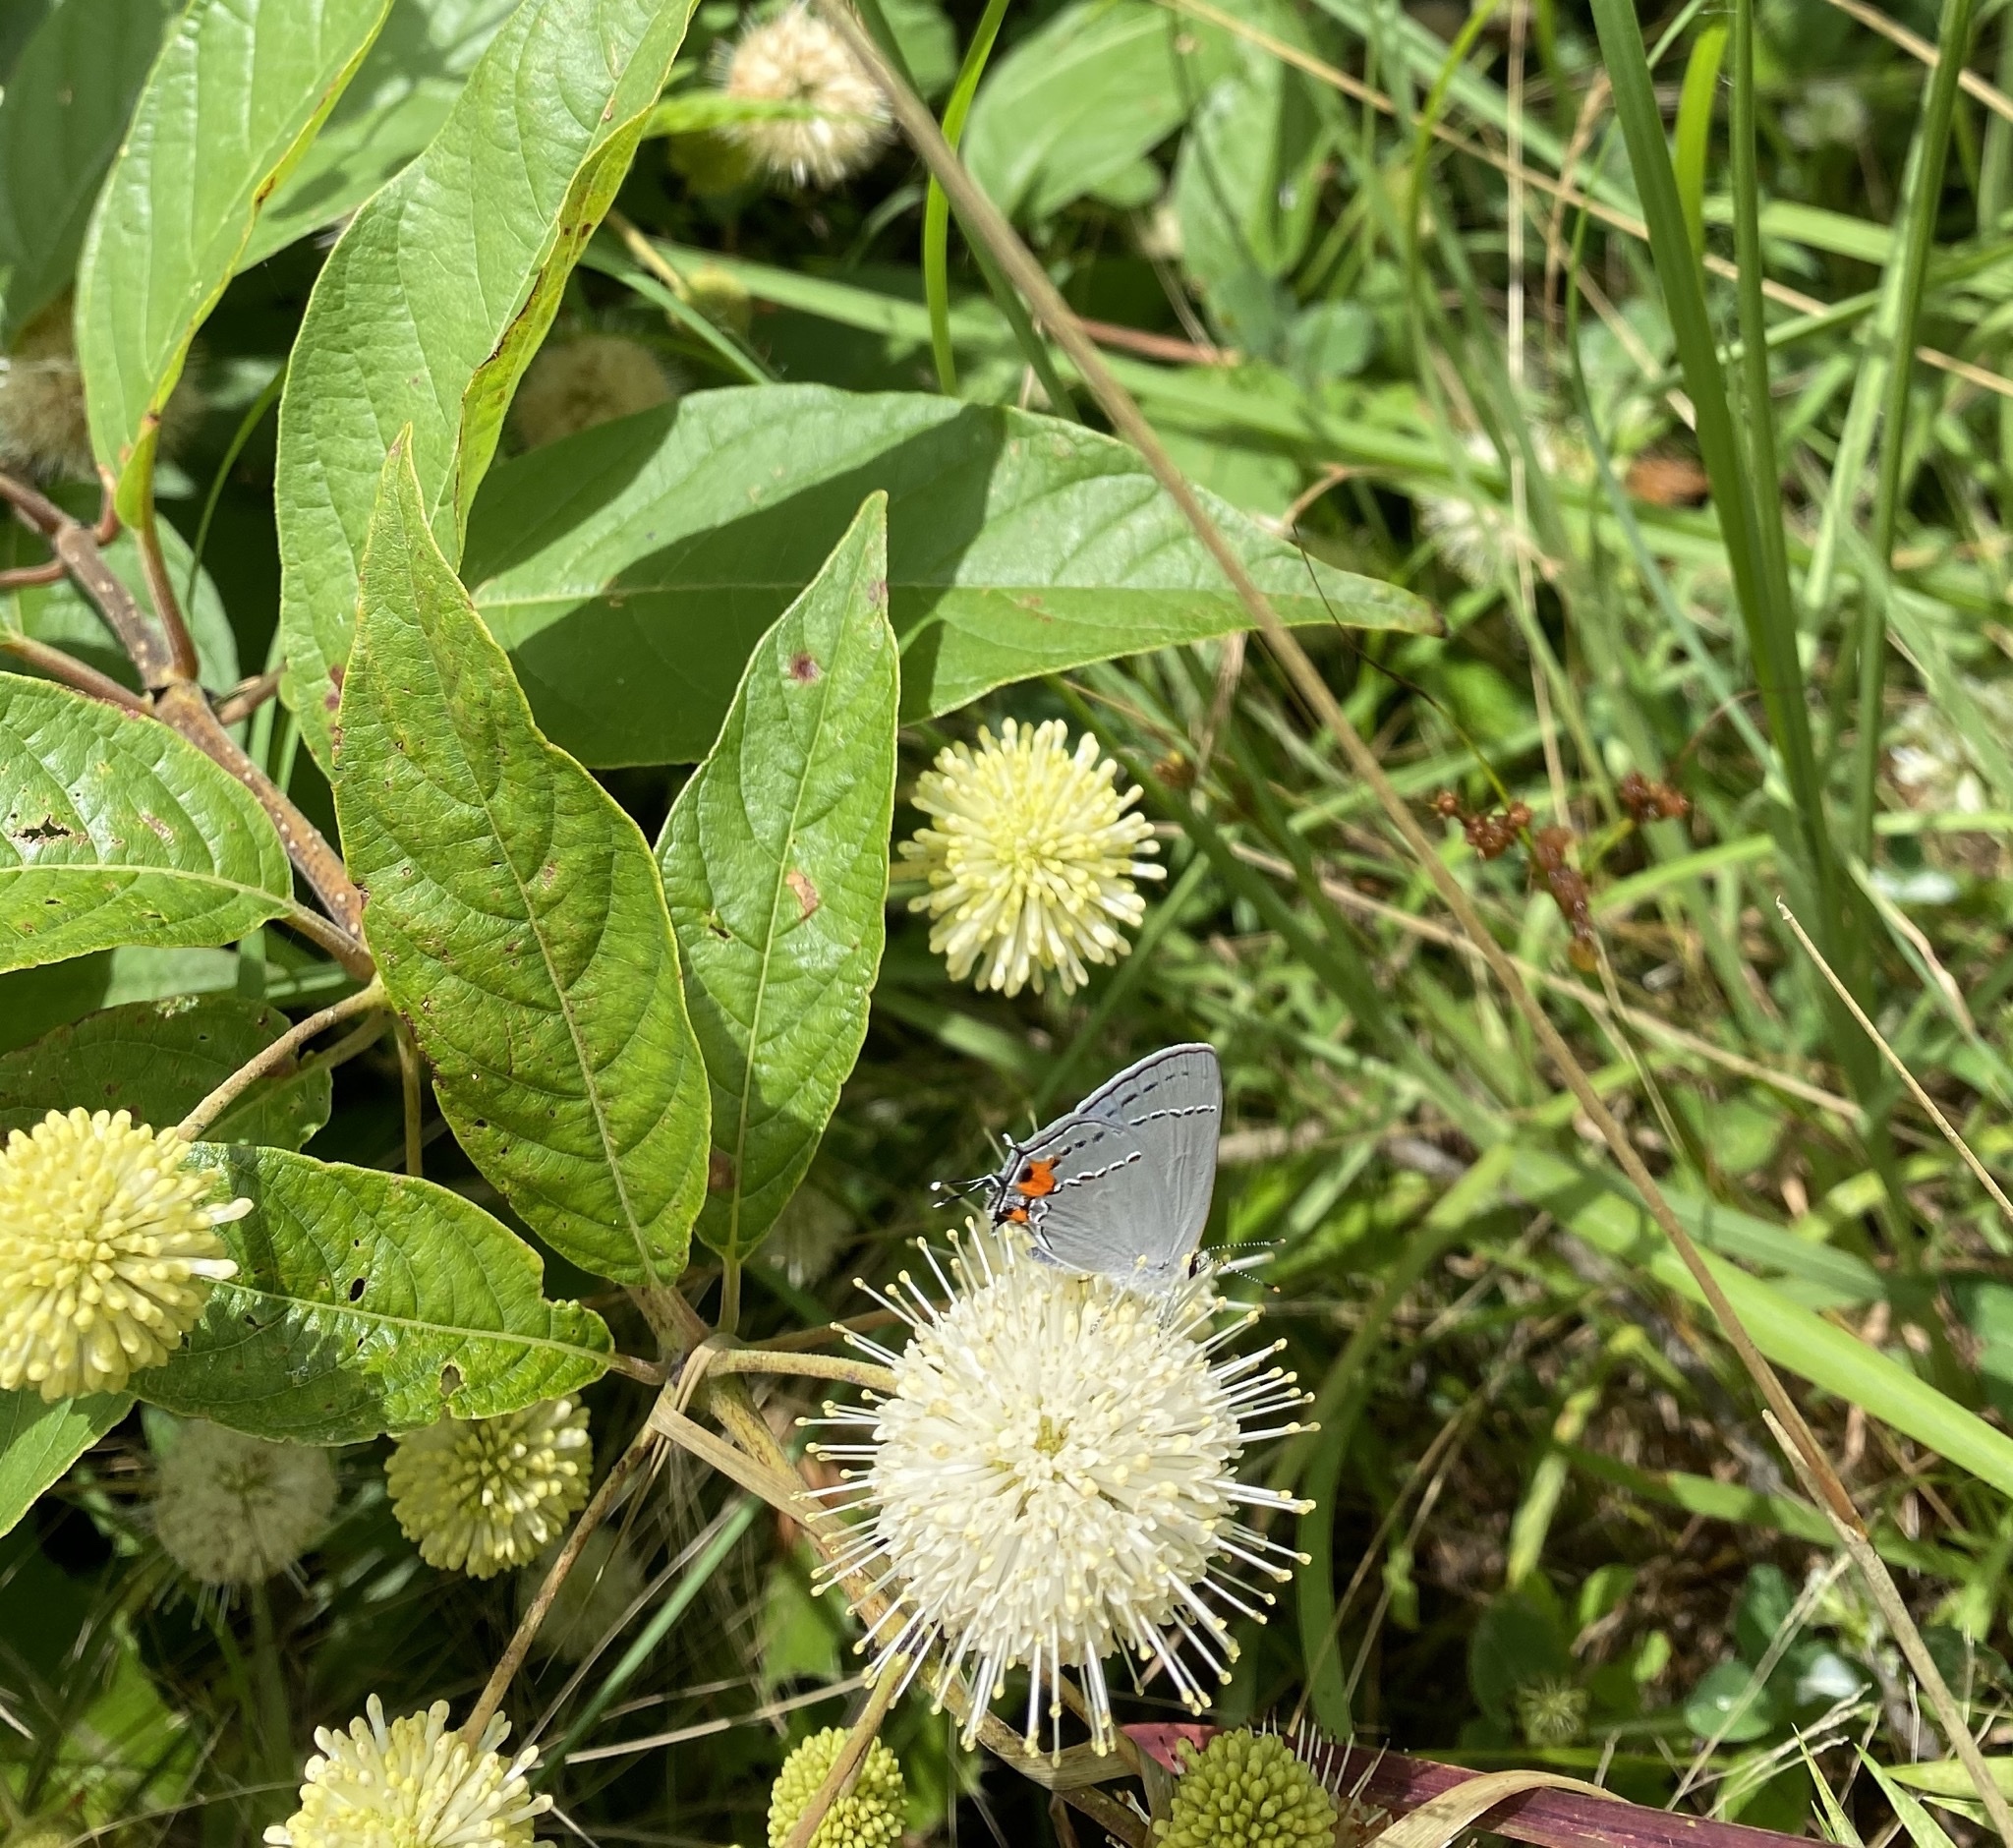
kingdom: Animalia
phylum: Arthropoda
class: Insecta
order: Lepidoptera
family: Lycaenidae
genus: Strymon
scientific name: Strymon melinus
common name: Gray hairstreak
